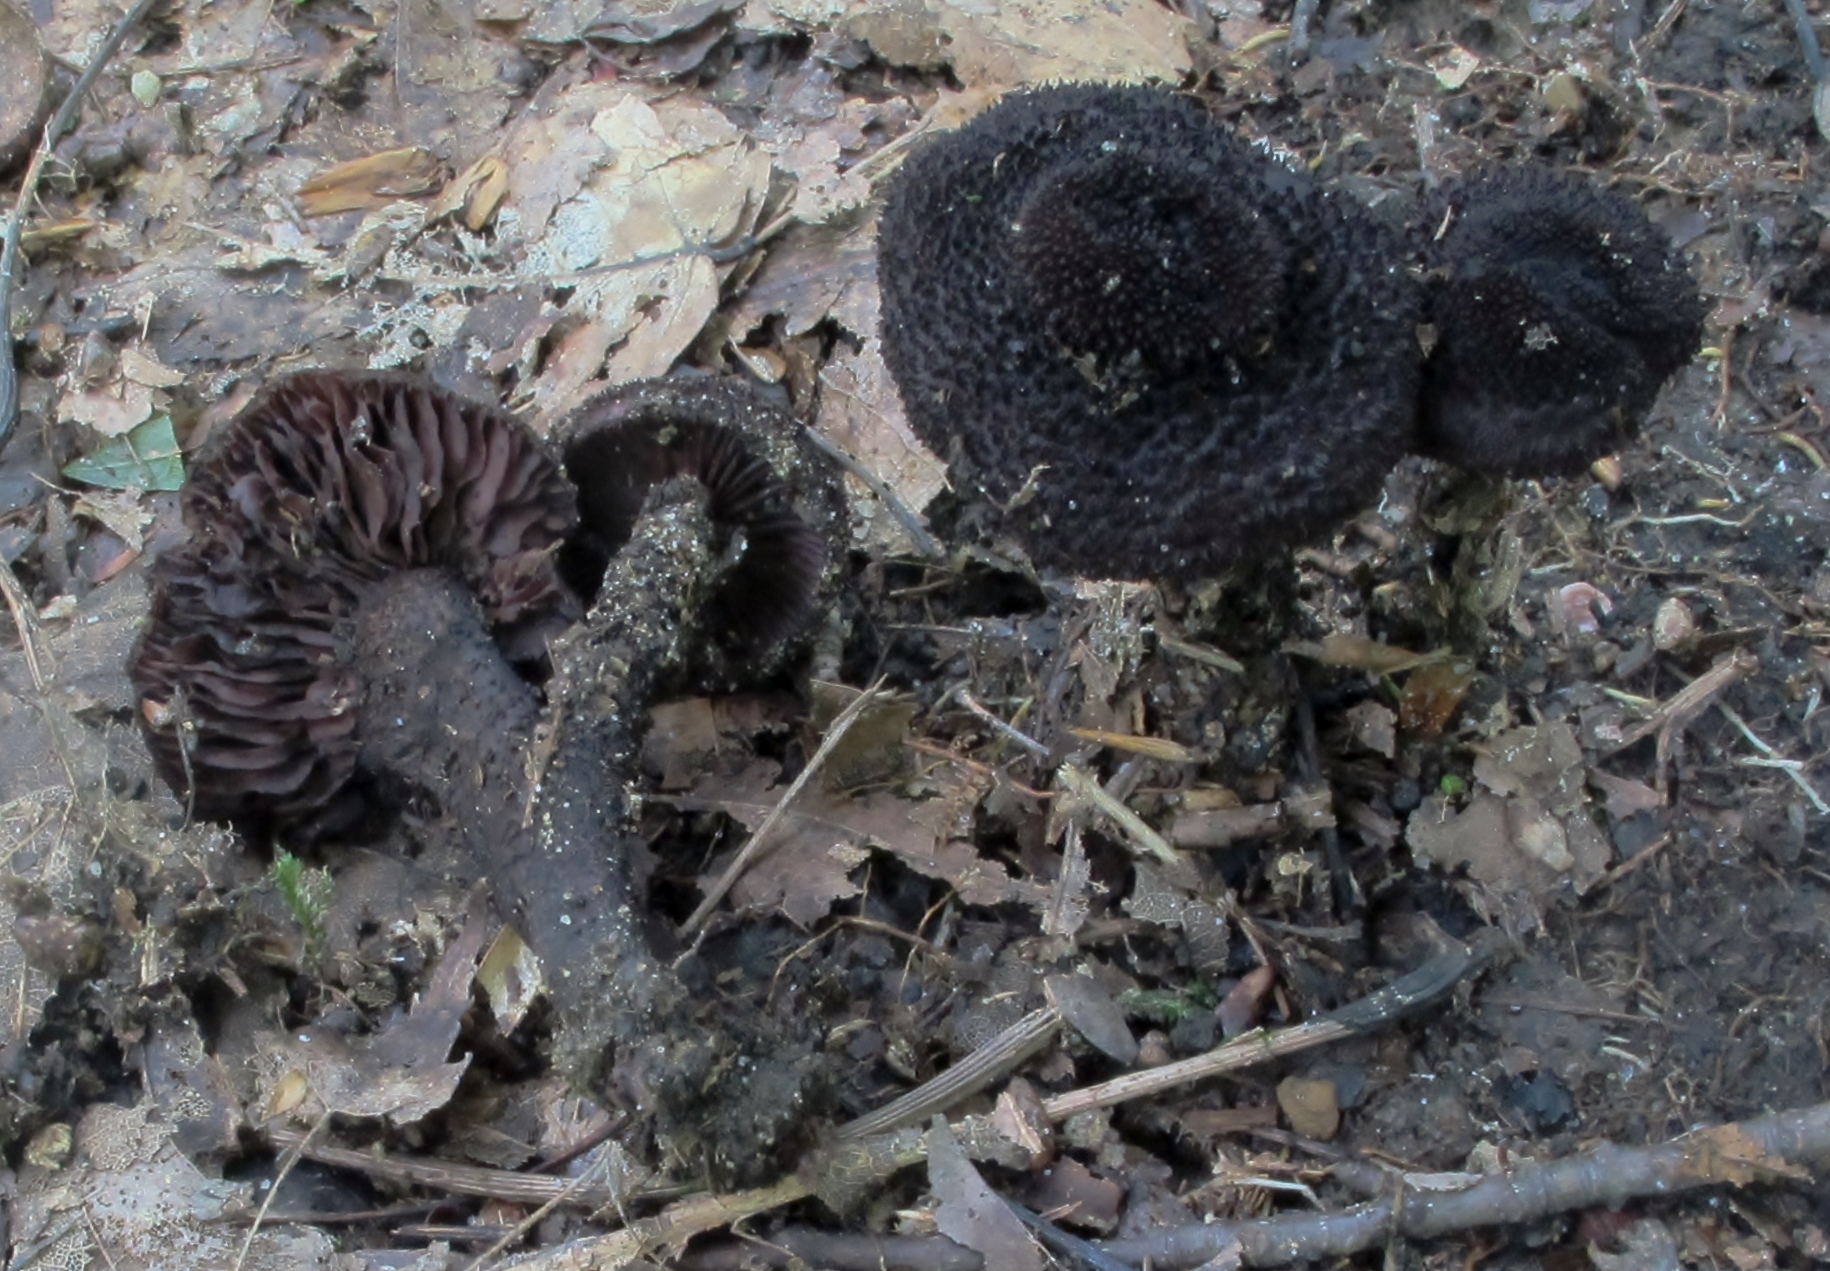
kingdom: Fungi
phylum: Basidiomycota
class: Agaricomycetes
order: Agaricales
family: Inocybaceae
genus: Inocybe
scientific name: Inocybe tahquamenonensis
